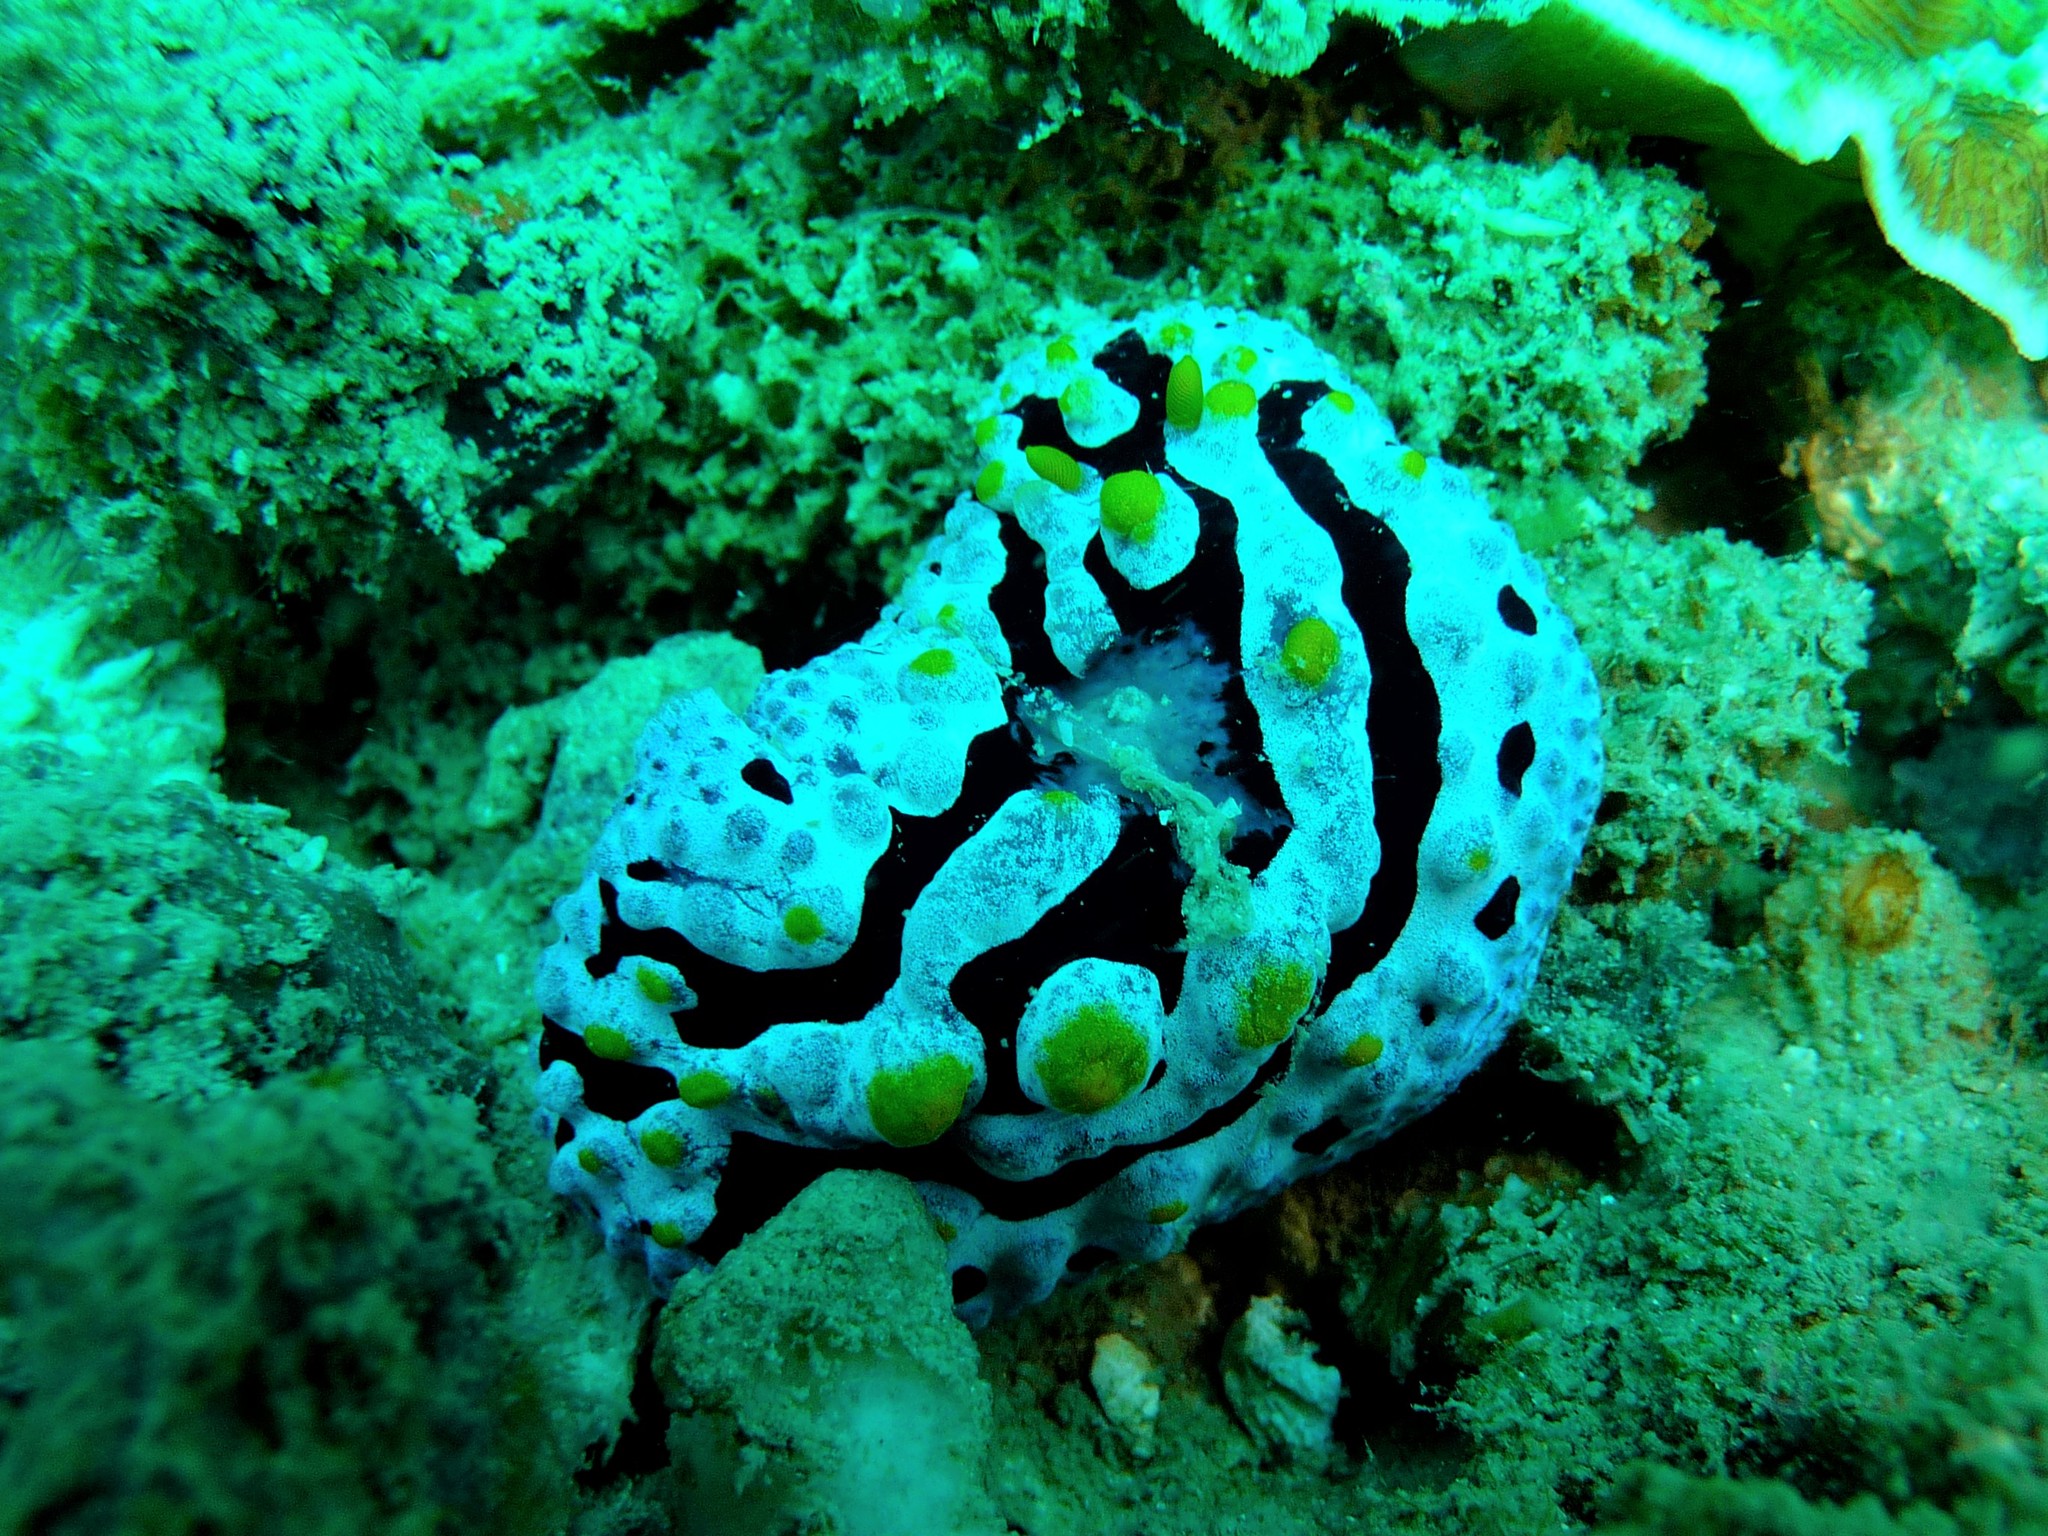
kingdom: Animalia
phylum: Mollusca
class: Gastropoda
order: Nudibranchia
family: Phyllidiidae
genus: Phyllidia
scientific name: Phyllidia coelestis
